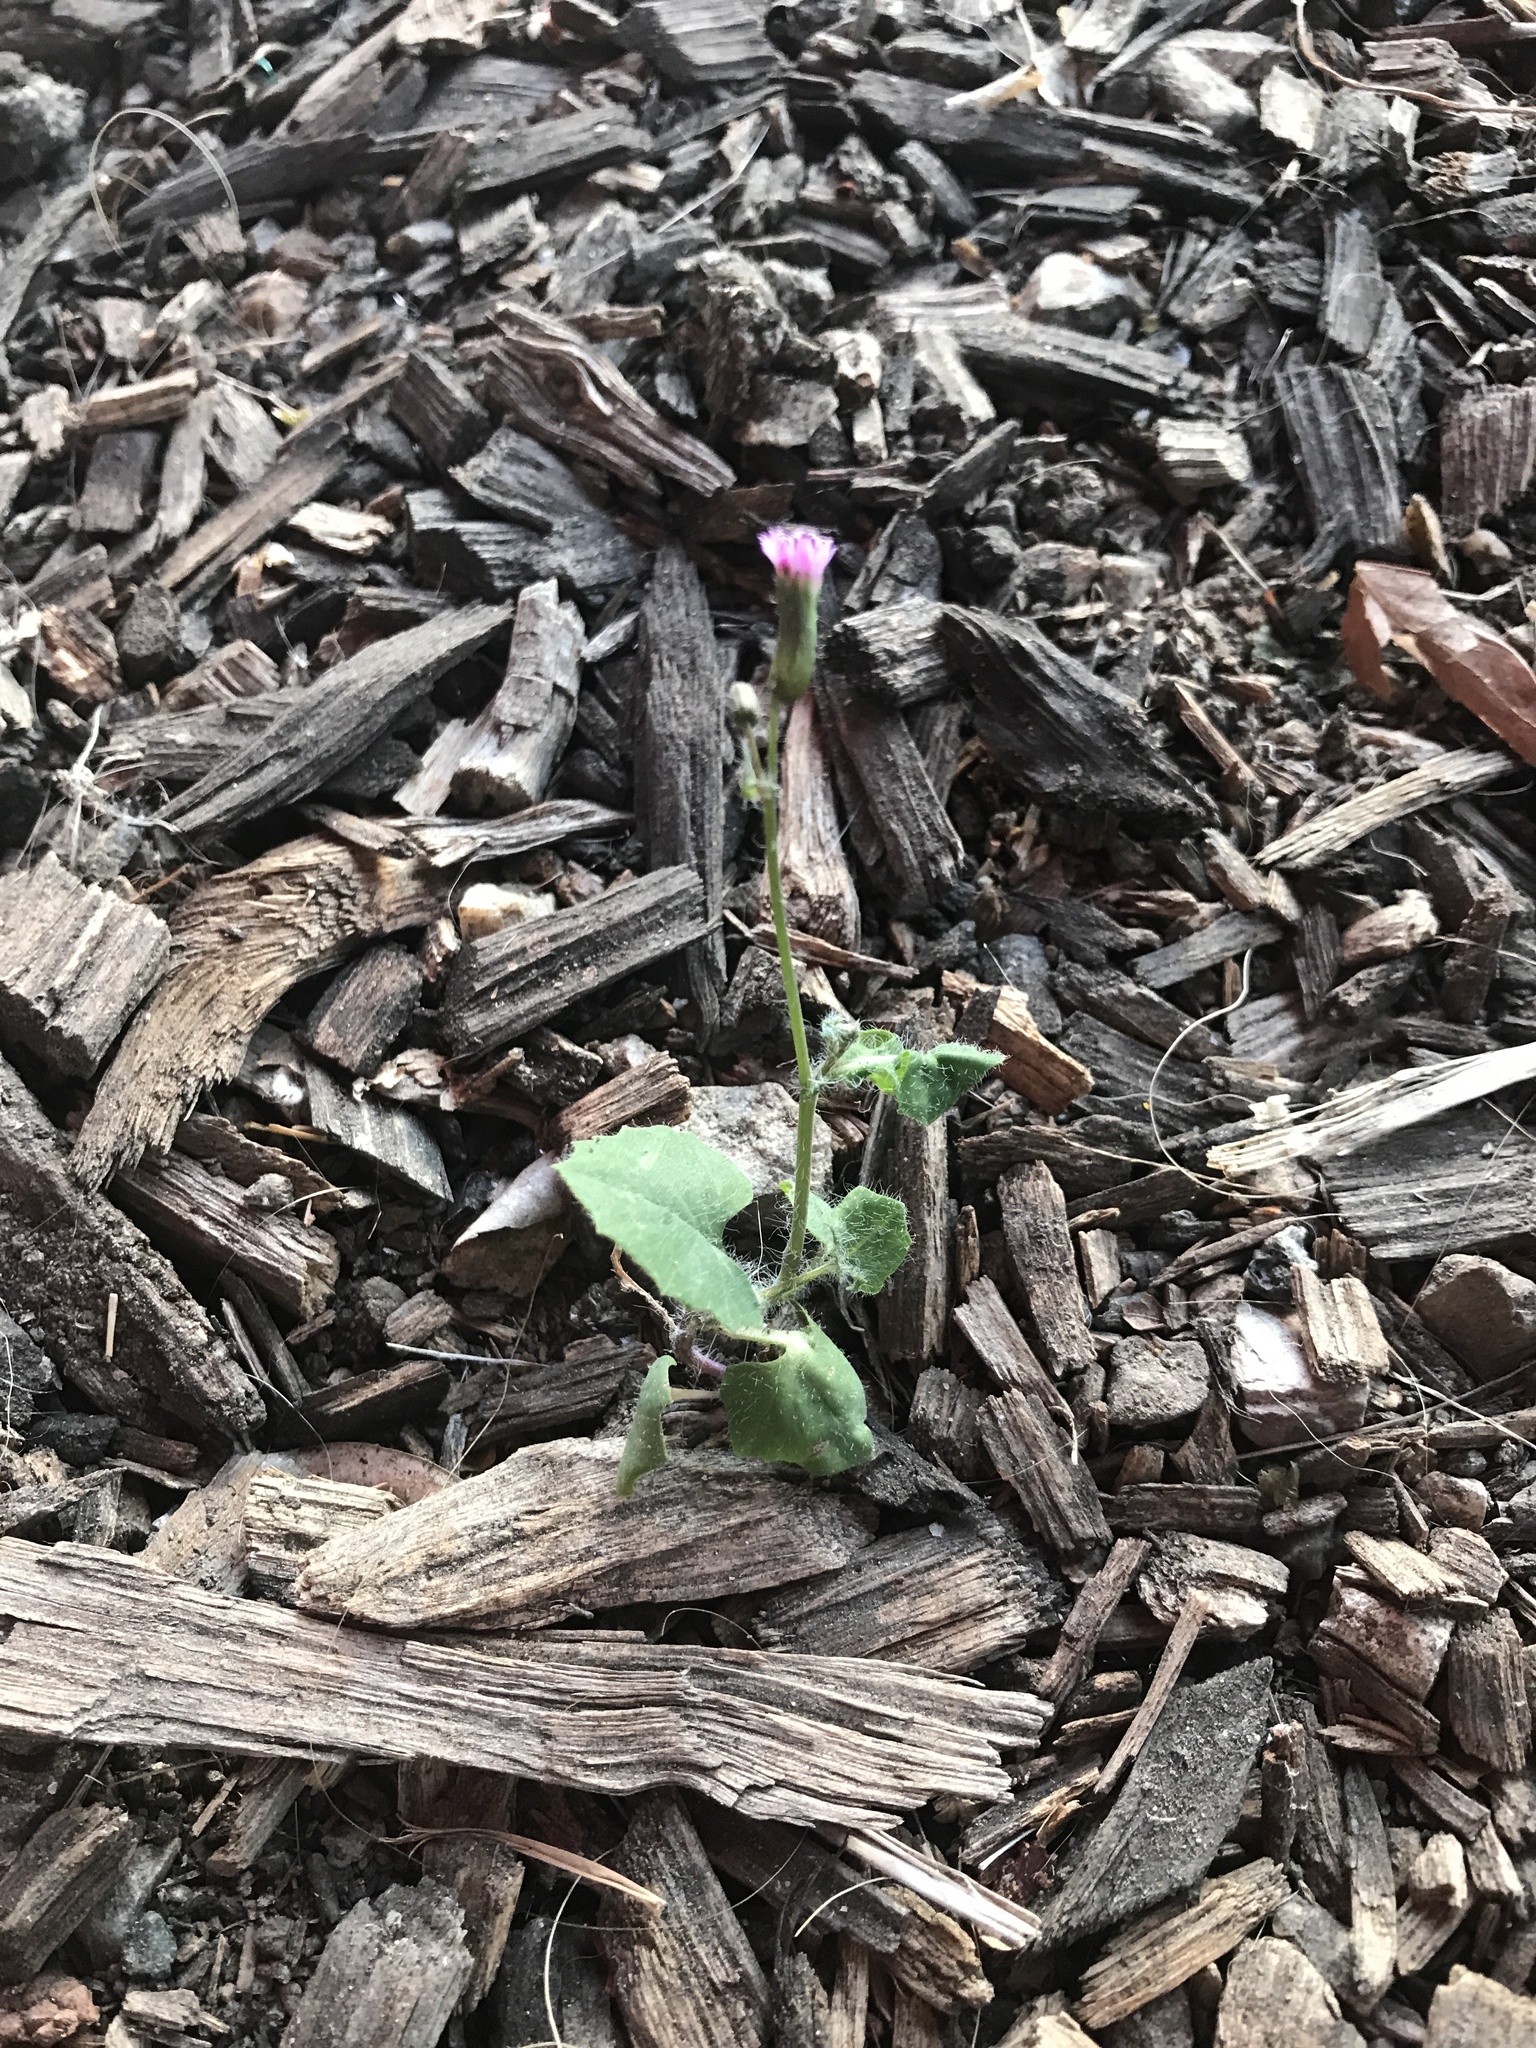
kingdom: Plantae
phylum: Tracheophyta
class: Magnoliopsida
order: Asterales
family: Asteraceae
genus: Emilia
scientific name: Emilia javanica
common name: Tassel-flower
